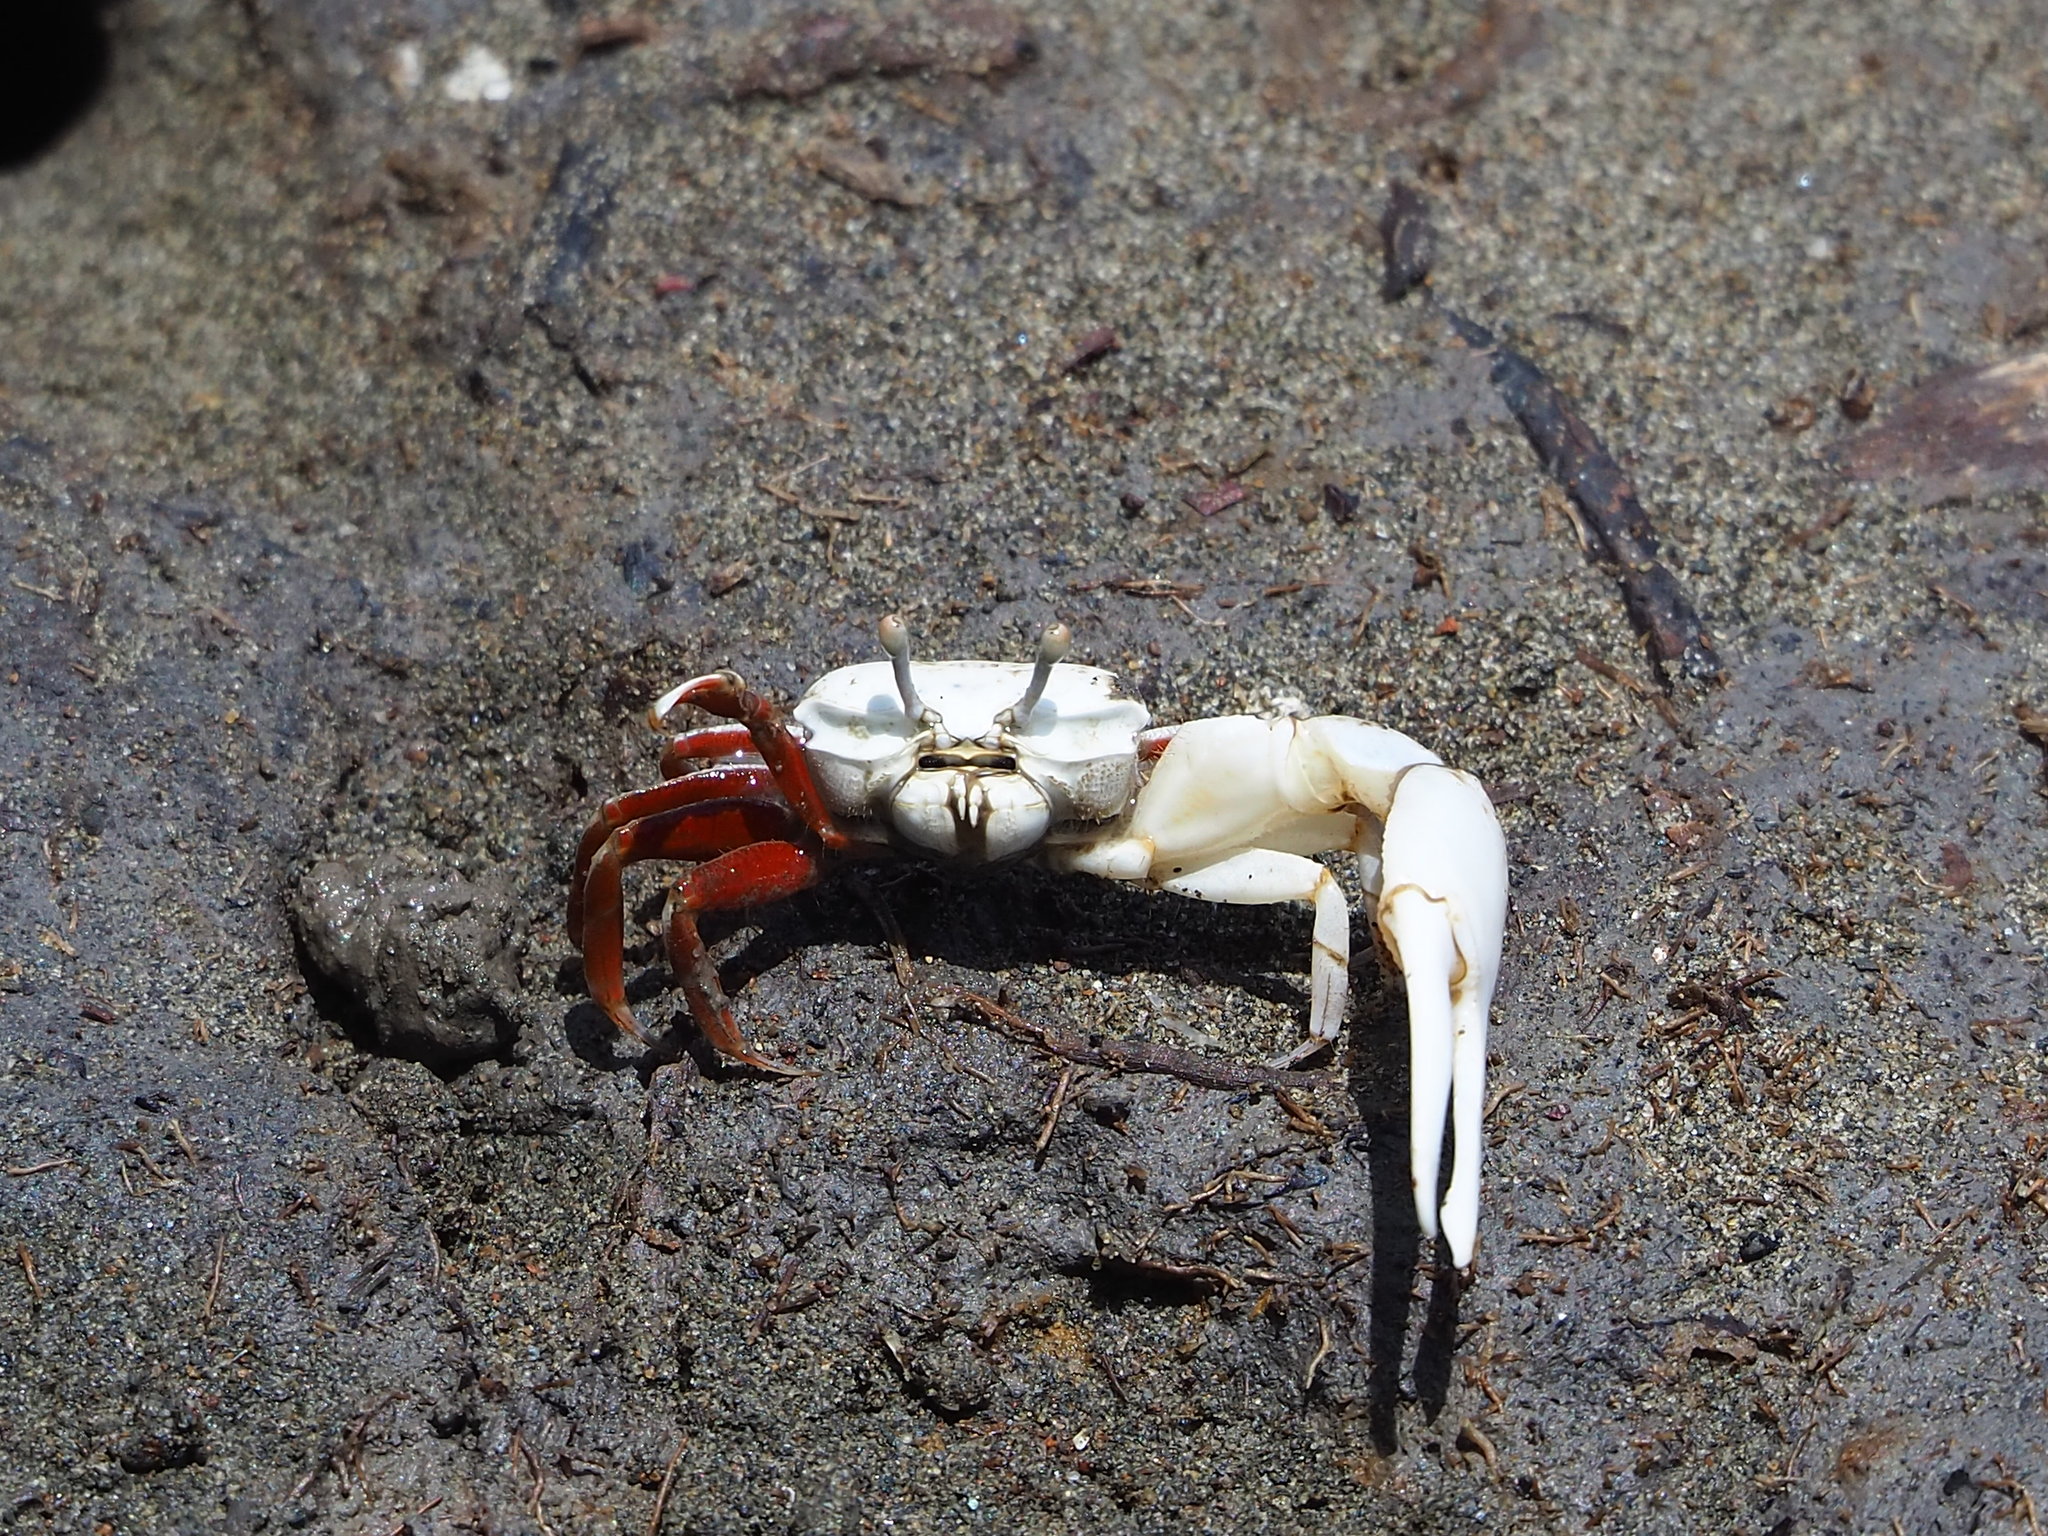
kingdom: Animalia
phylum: Arthropoda
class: Malacostraca
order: Decapoda
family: Ocypodidae
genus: Austruca
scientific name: Austruca lactea
